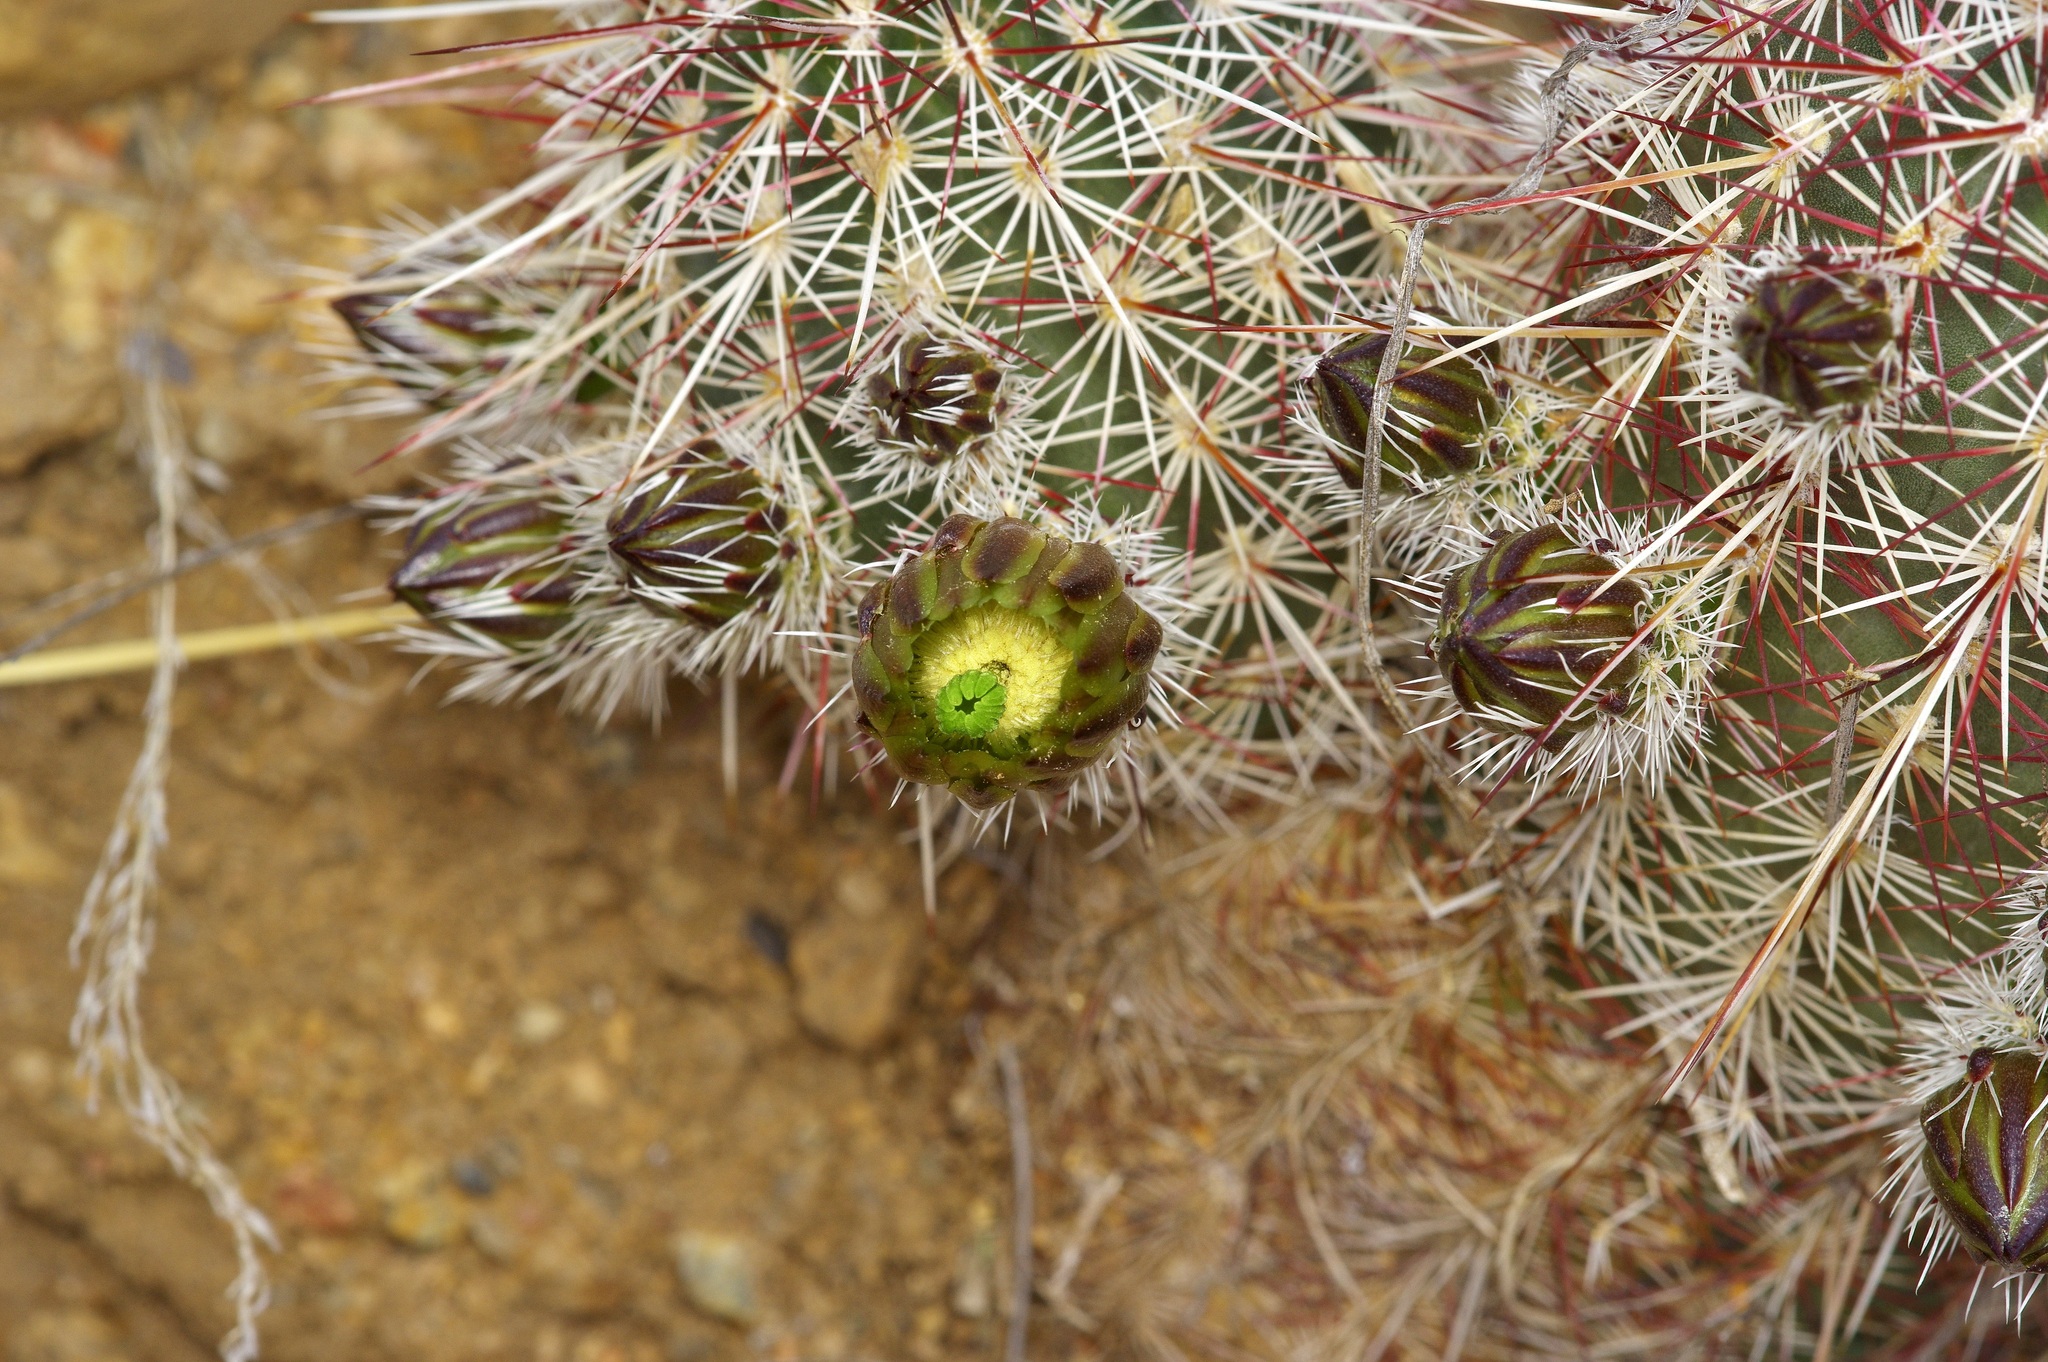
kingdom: Plantae
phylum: Tracheophyta
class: Magnoliopsida
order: Caryophyllales
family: Cactaceae
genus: Echinocereus
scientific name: Echinocereus viridiflorus
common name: Nylon hedgehog cactus
